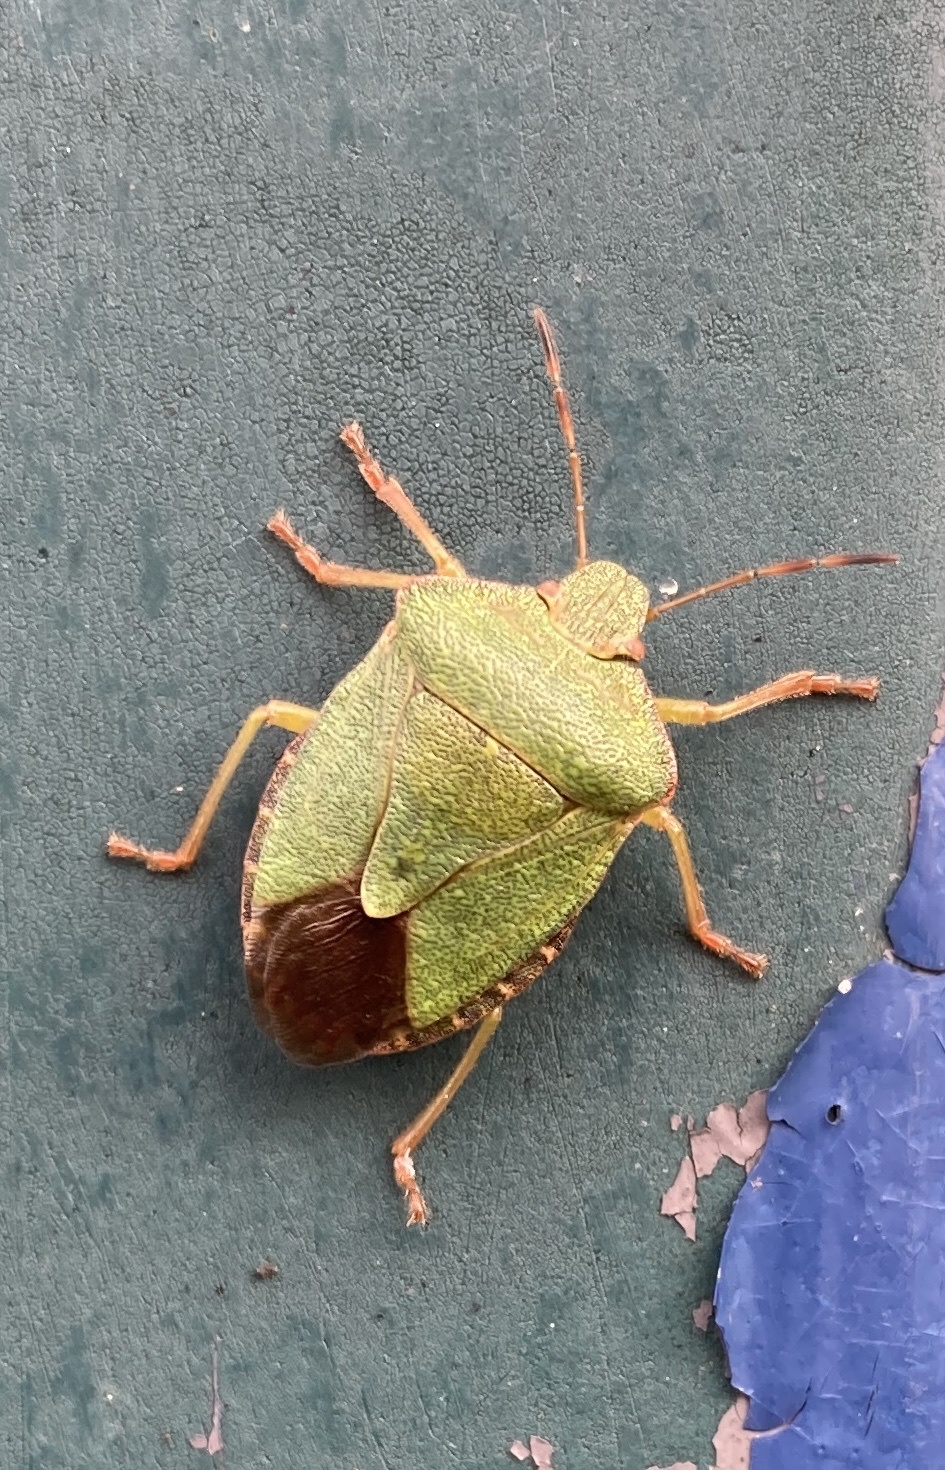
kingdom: Animalia
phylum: Arthropoda
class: Insecta
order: Hemiptera
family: Pentatomidae
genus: Palomena
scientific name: Palomena prasina
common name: Green shieldbug
